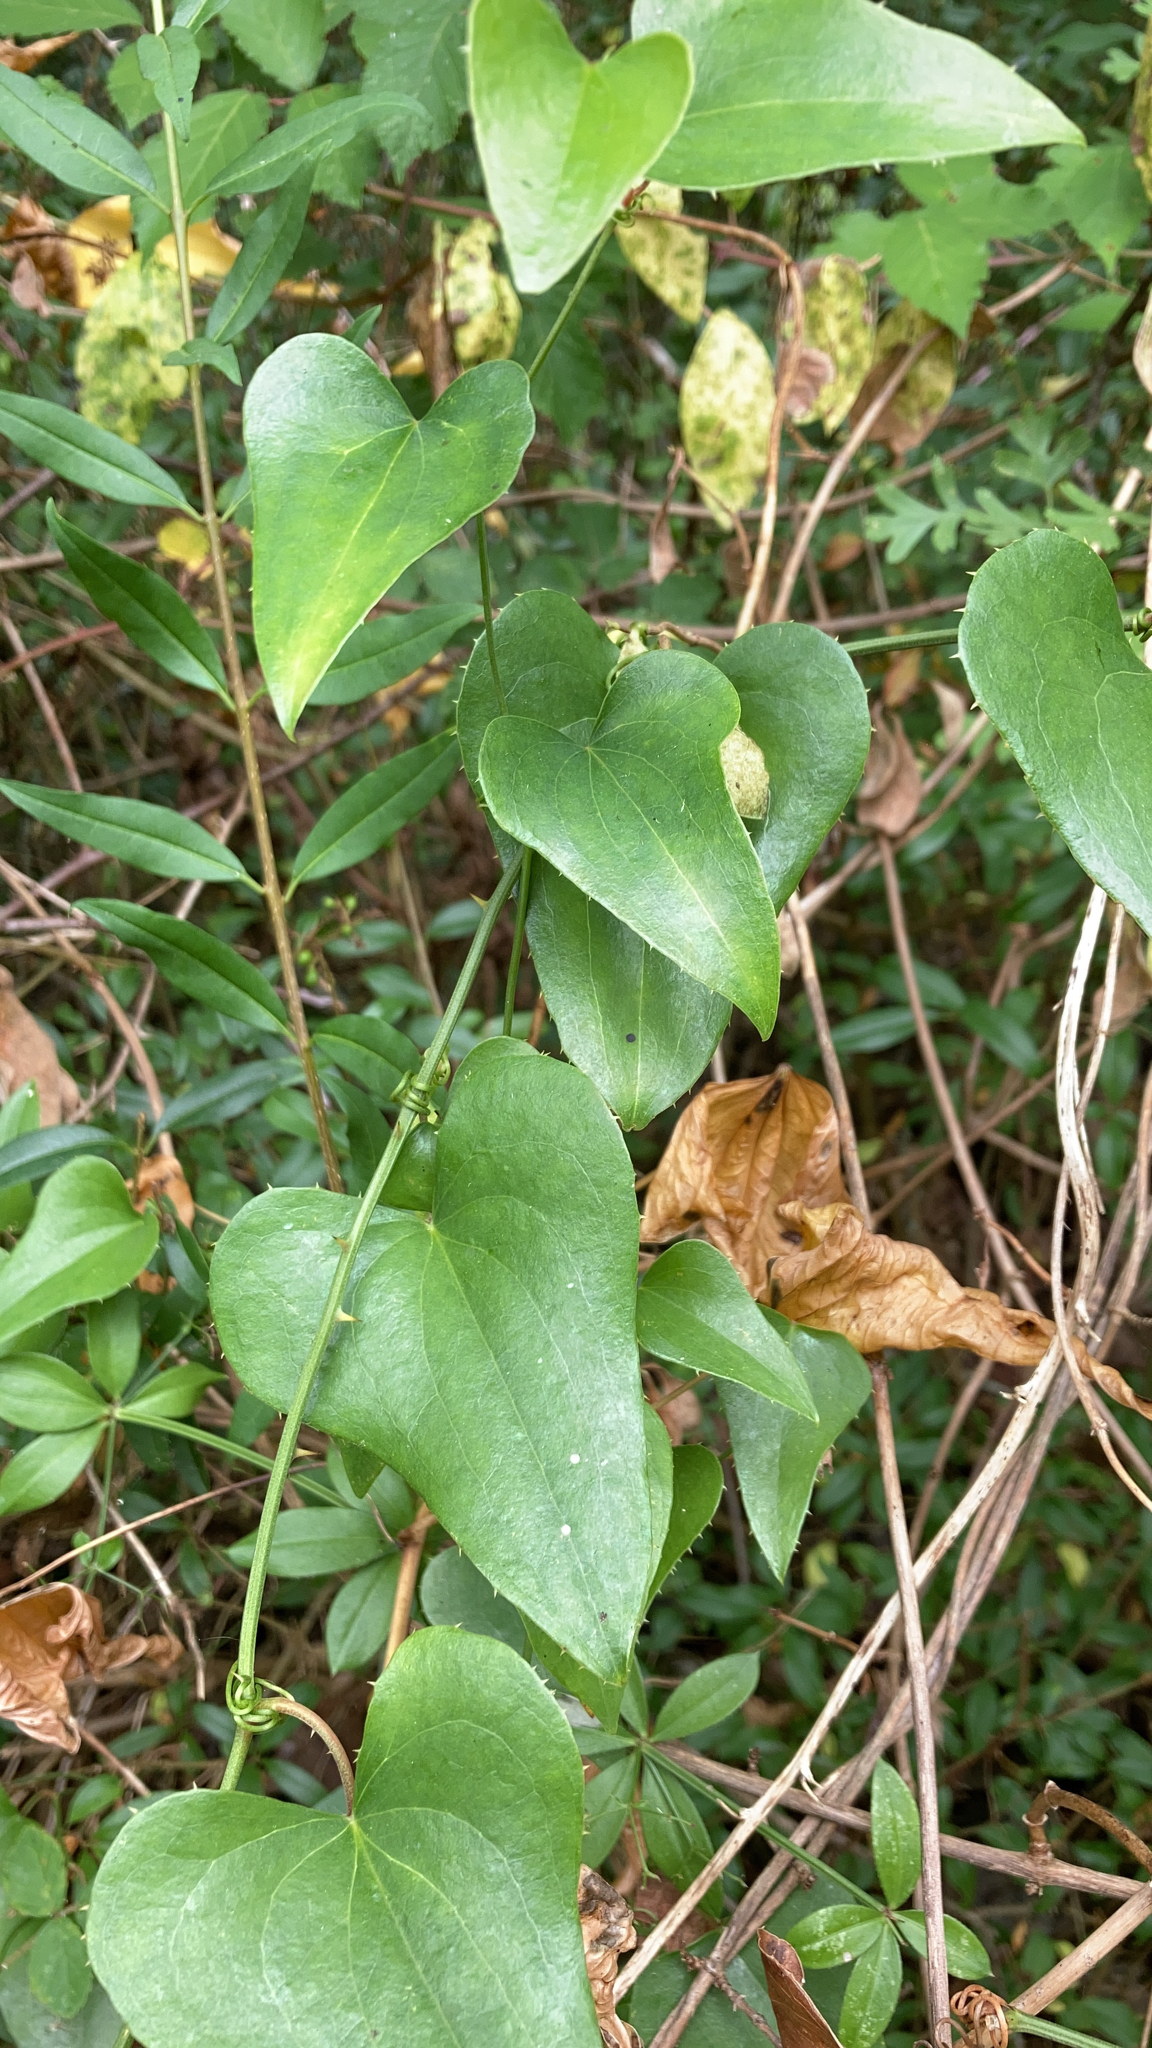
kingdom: Plantae
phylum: Tracheophyta
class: Liliopsida
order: Liliales
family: Smilacaceae
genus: Smilax
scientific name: Smilax aspera
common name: Common smilax
